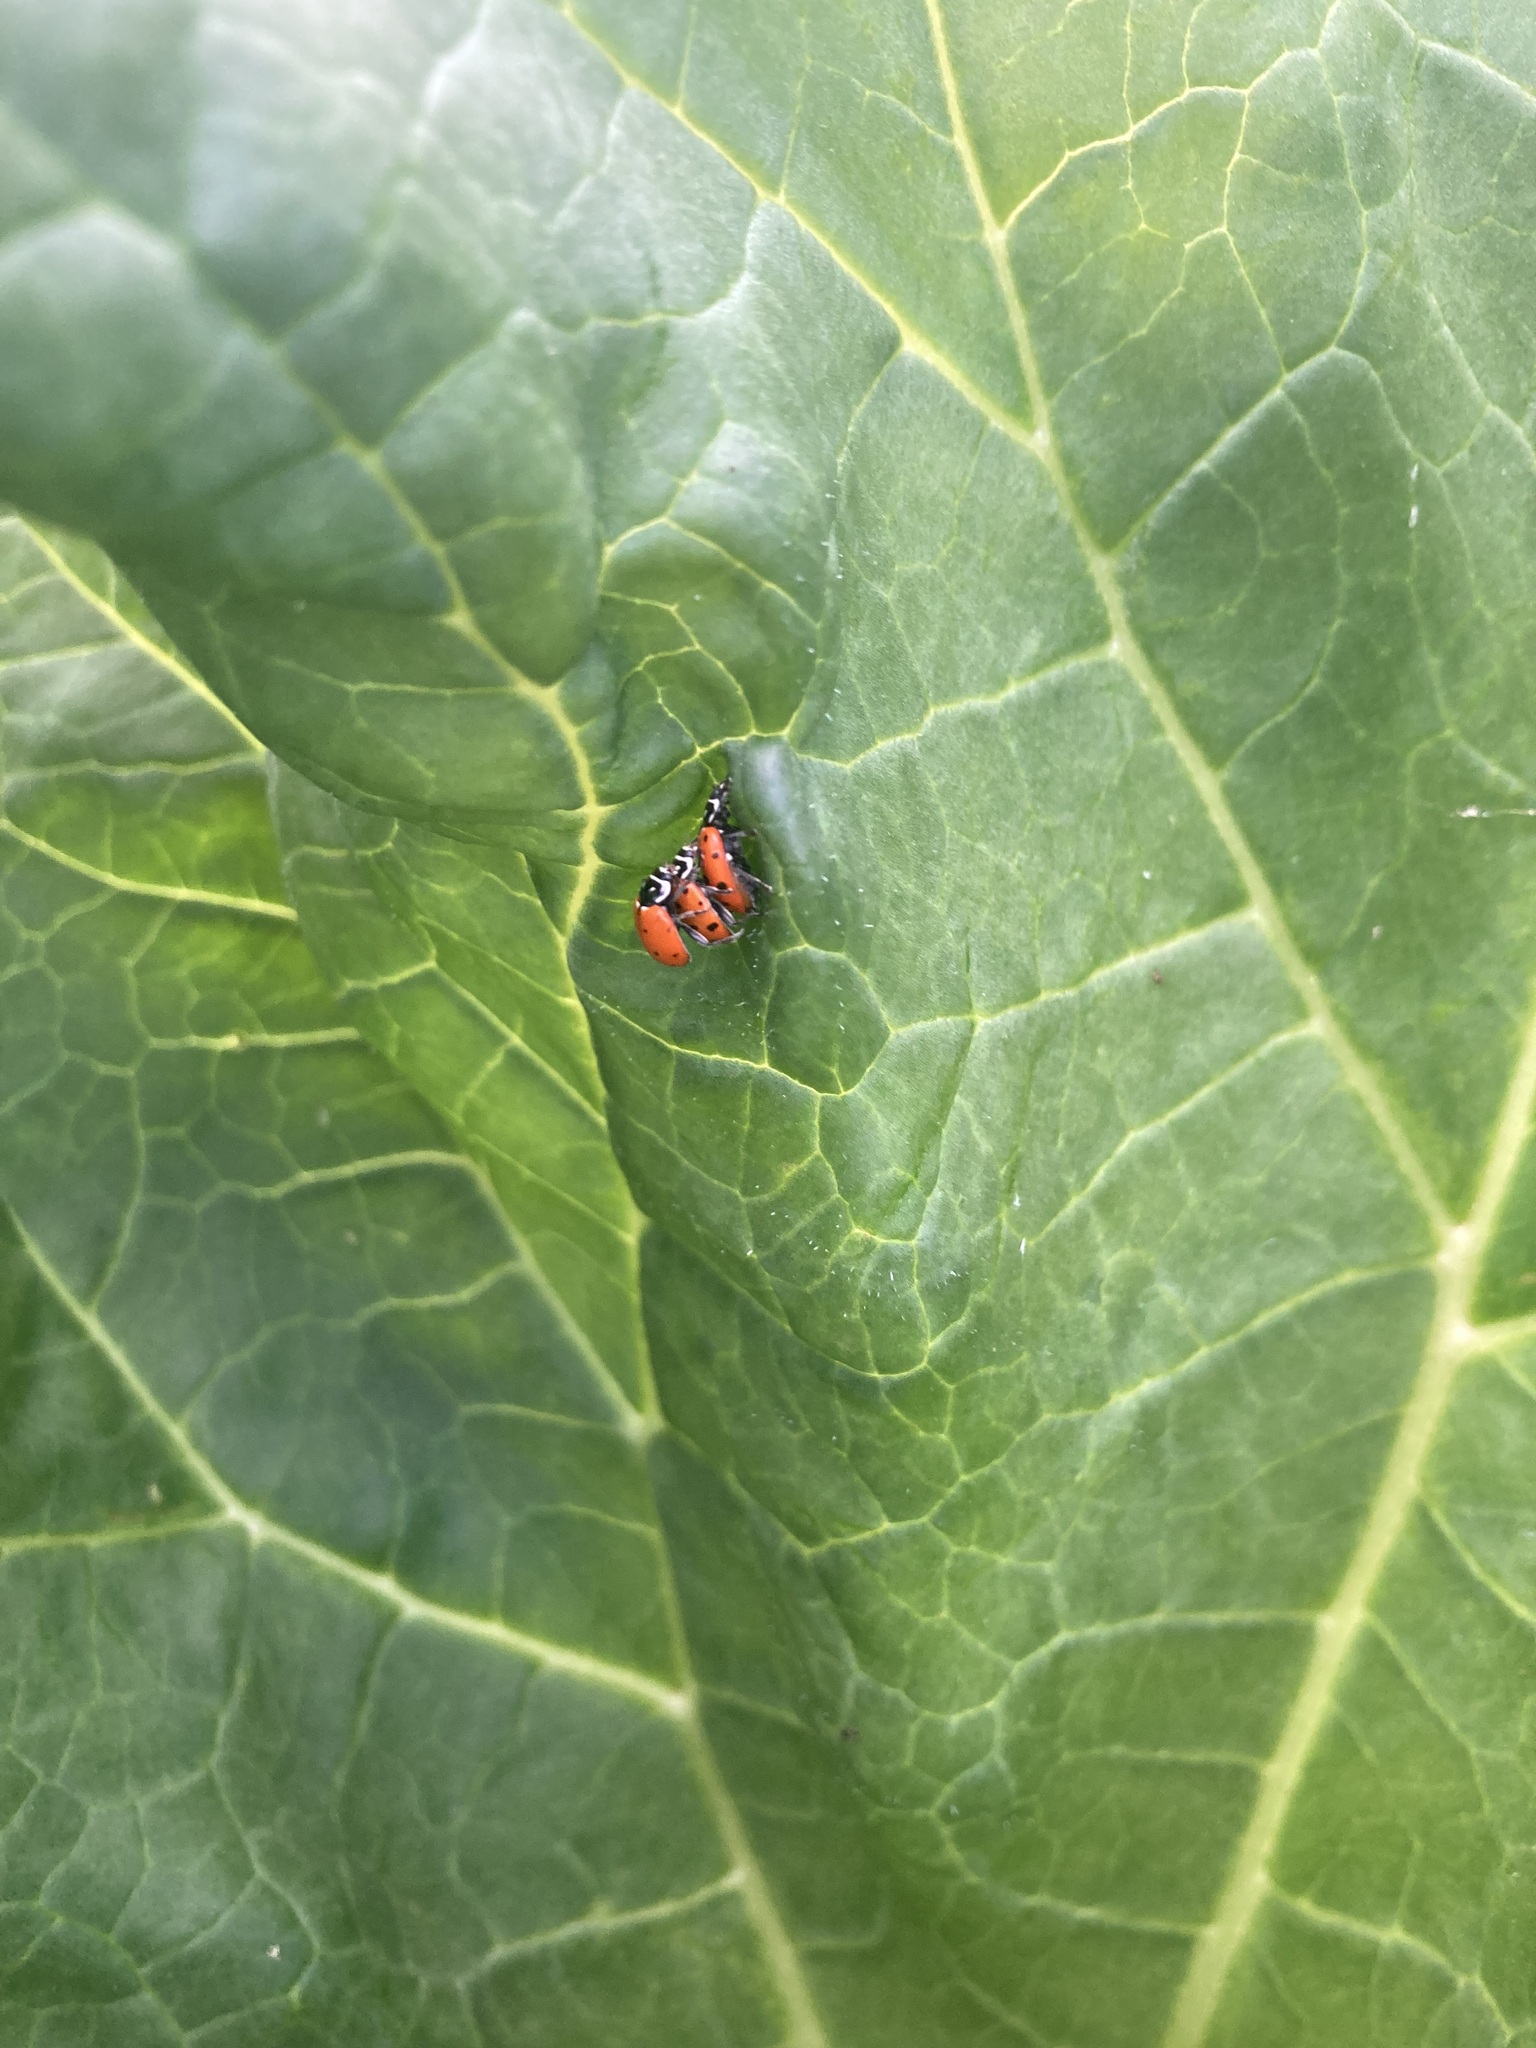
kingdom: Animalia
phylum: Arthropoda
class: Insecta
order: Coleoptera
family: Coccinellidae
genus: Hippodamia
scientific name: Hippodamia convergens
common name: Convergent lady beetle
